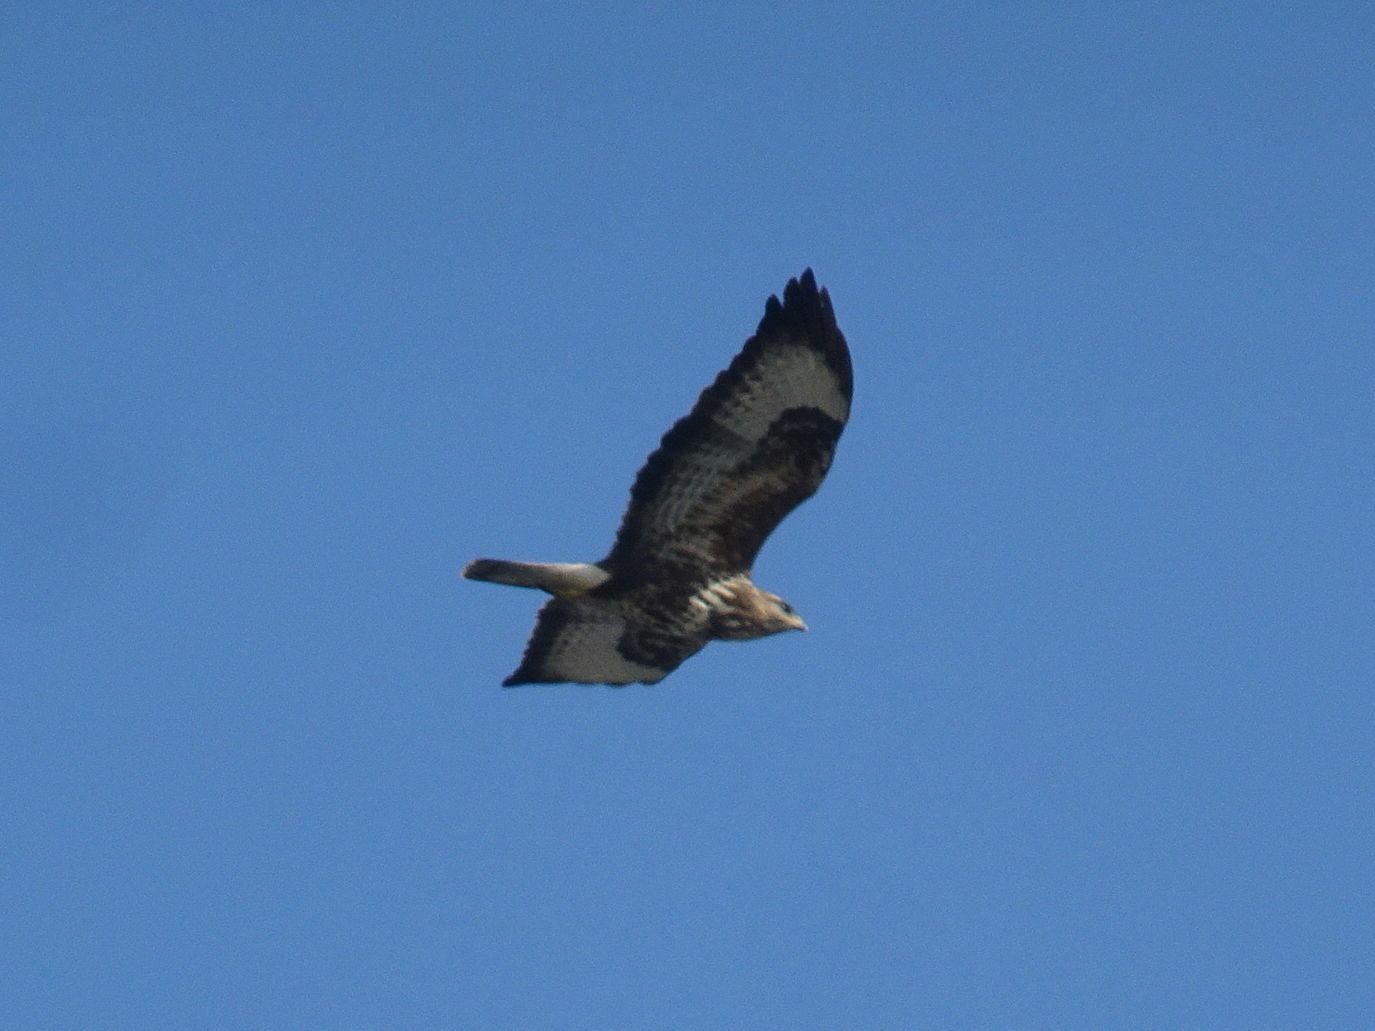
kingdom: Animalia
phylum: Chordata
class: Aves
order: Accipitriformes
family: Accipitridae
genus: Buteo
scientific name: Buteo buteo
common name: Common buzzard
